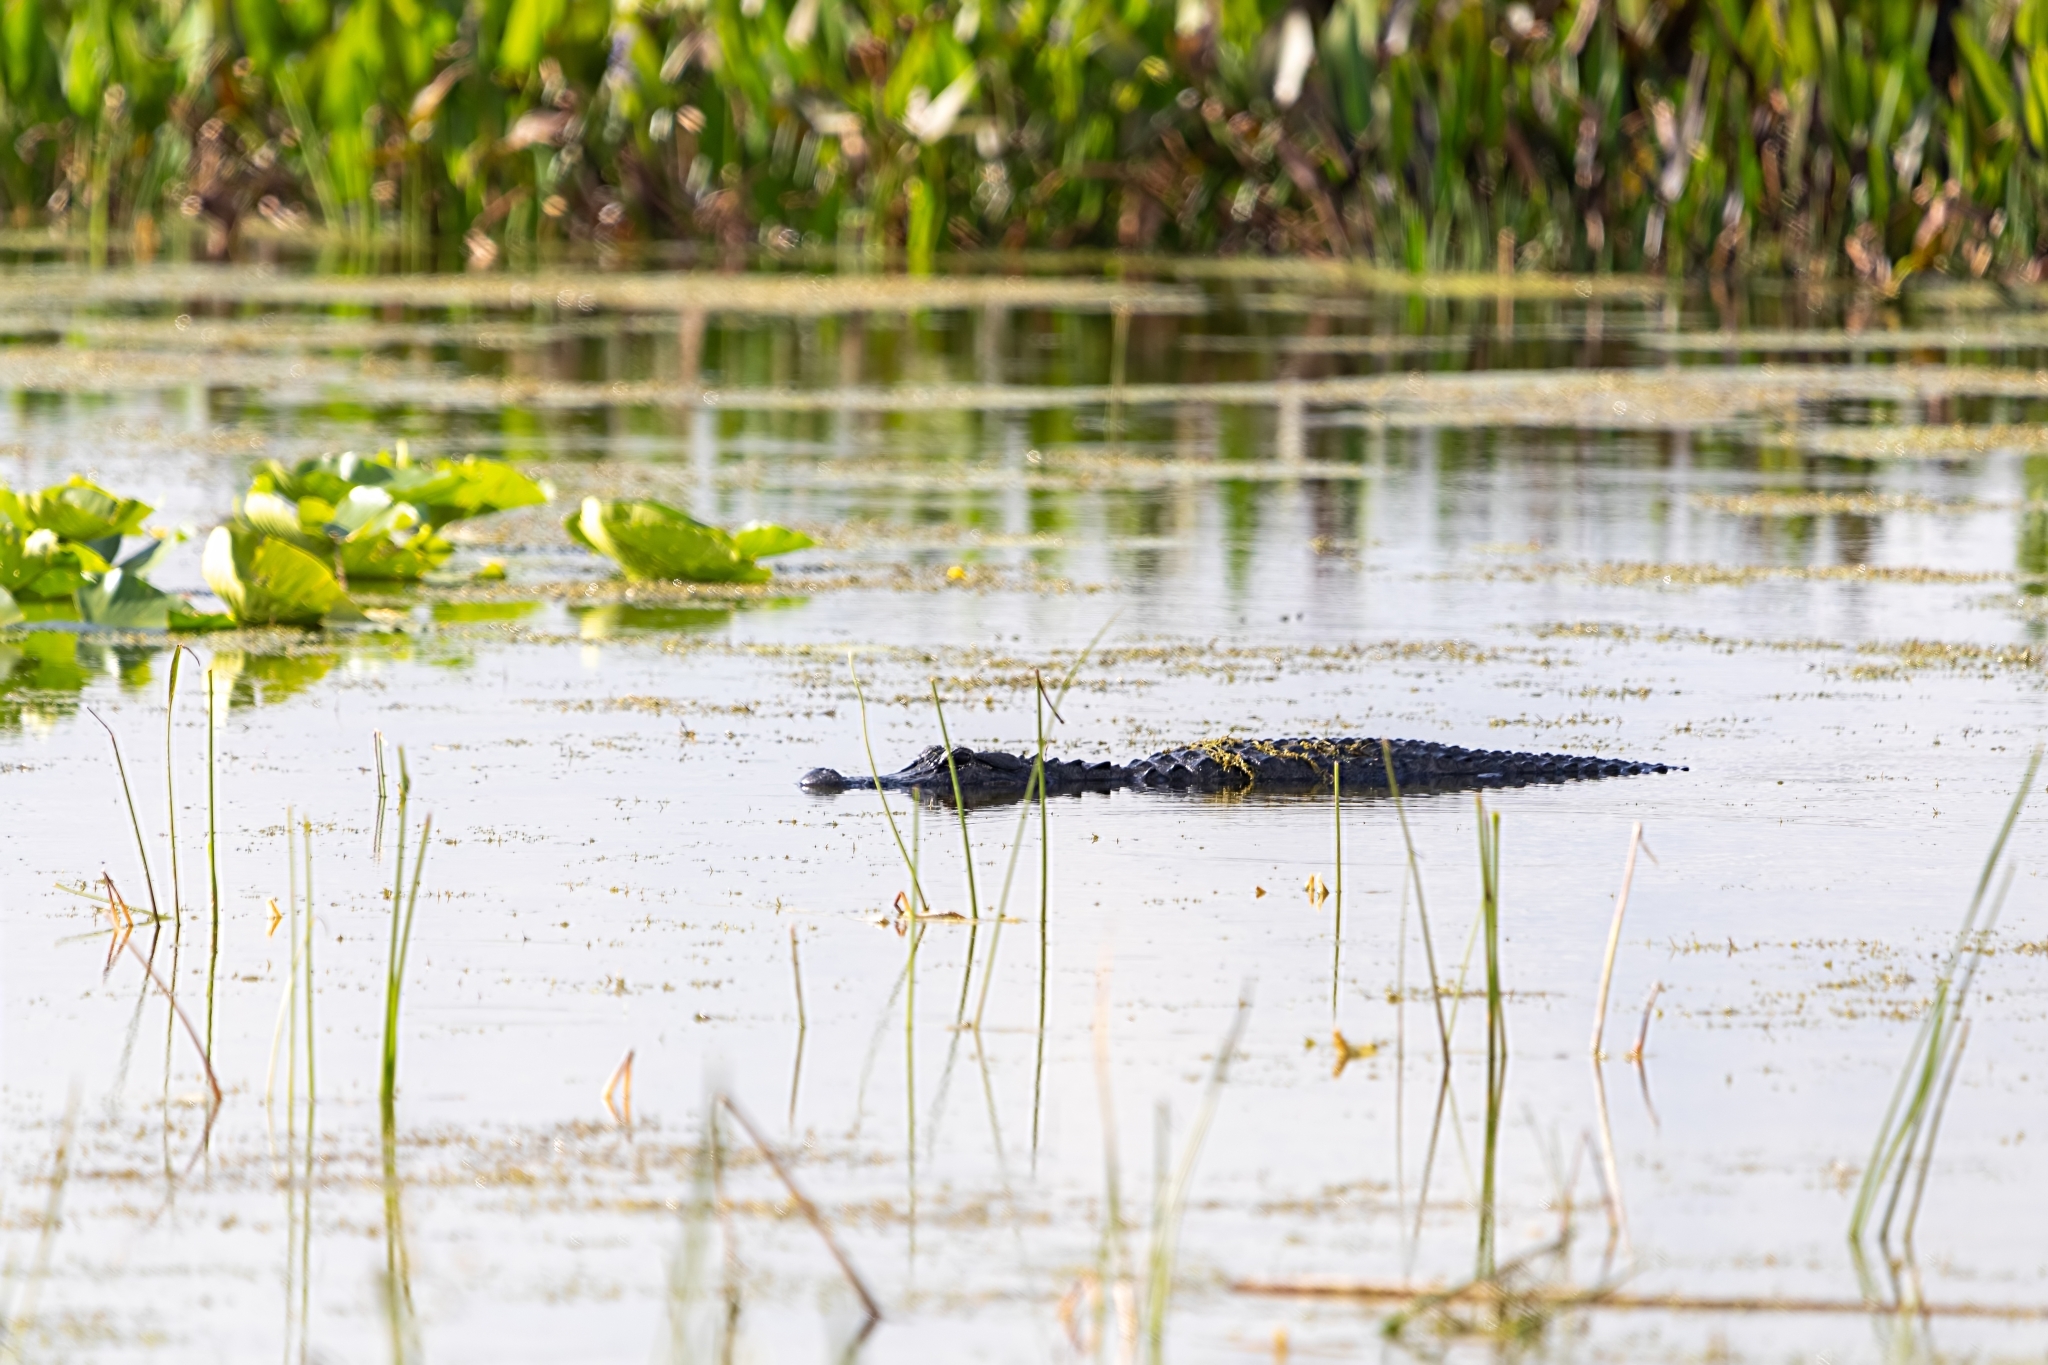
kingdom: Animalia
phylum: Chordata
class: Crocodylia
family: Alligatoridae
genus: Alligator
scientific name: Alligator mississippiensis
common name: American alligator
